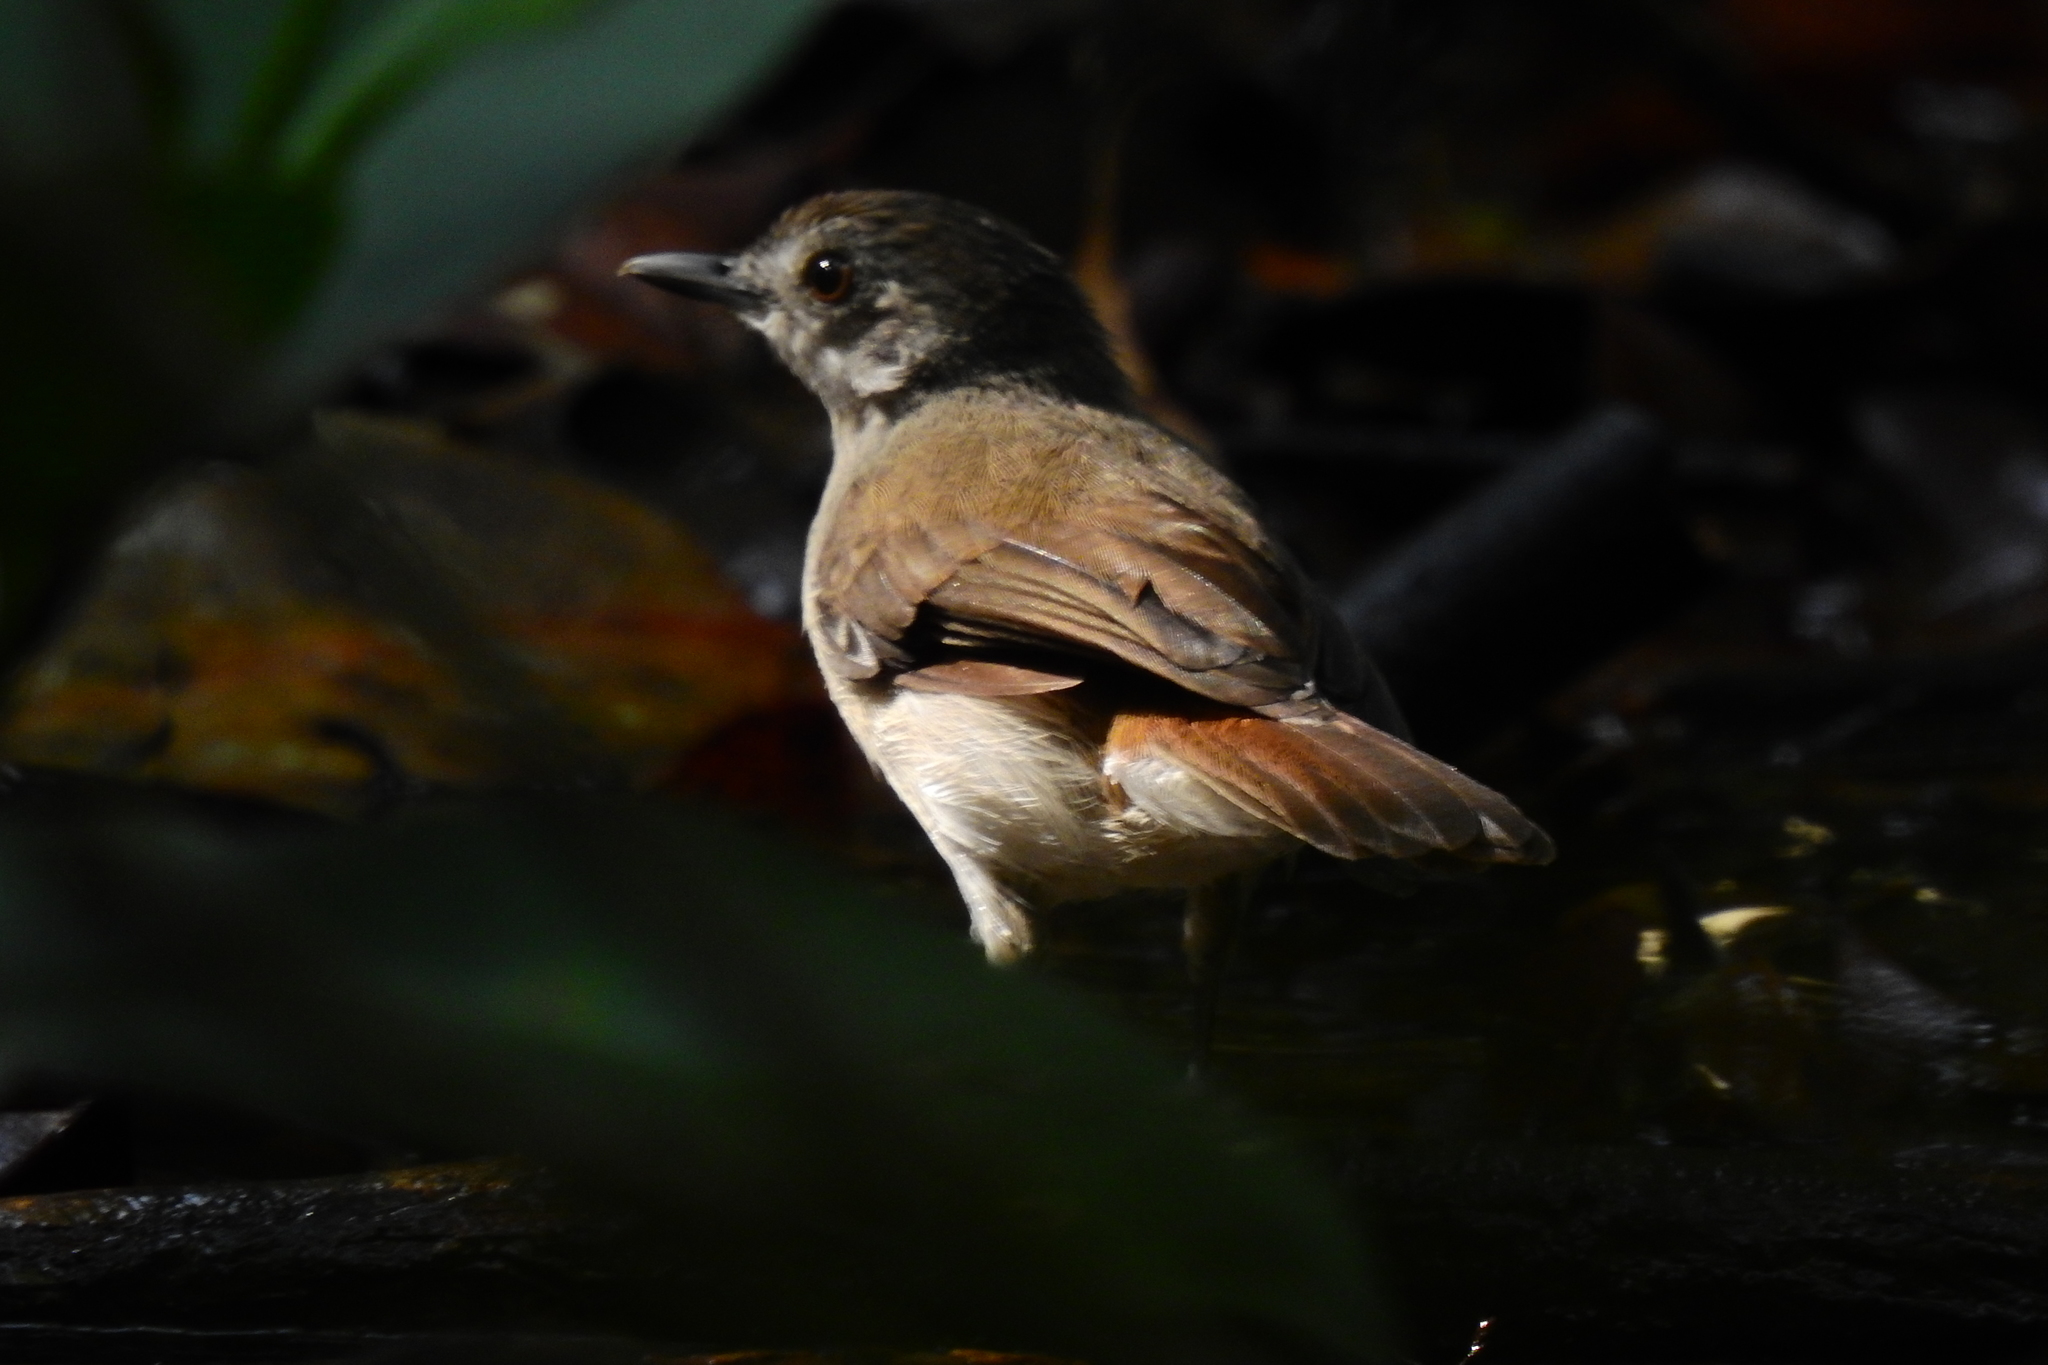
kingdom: Animalia
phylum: Chordata
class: Aves
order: Passeriformes
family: Pellorneidae
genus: Malacopteron
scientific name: Malacopteron affine
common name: Sooty-capped babbler
